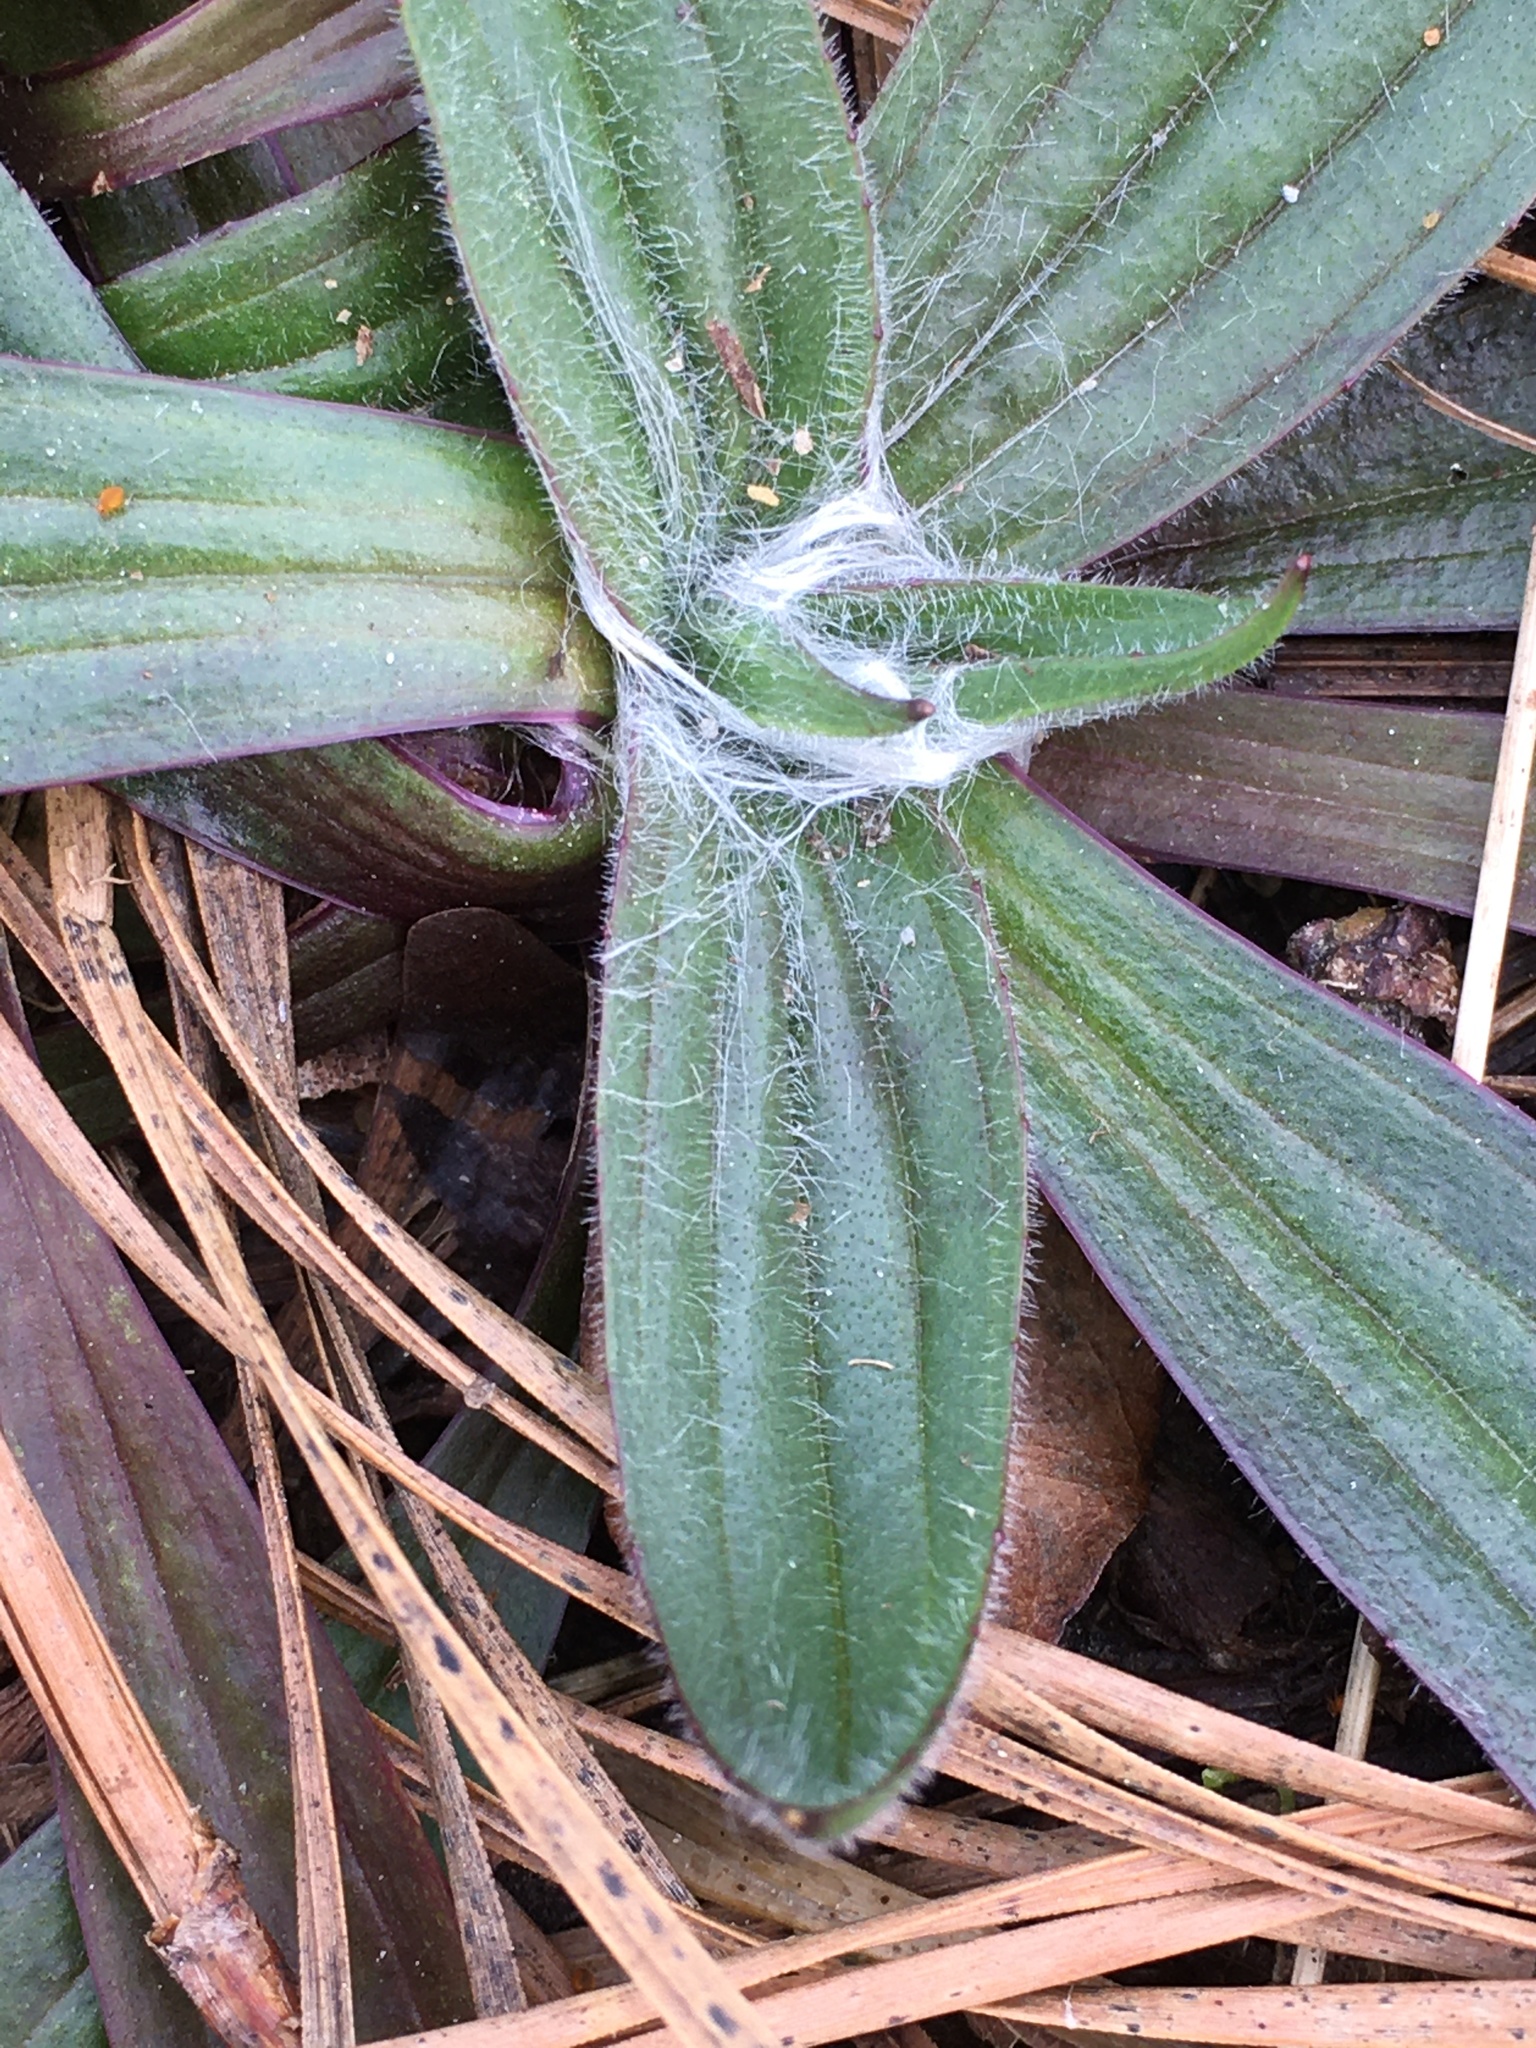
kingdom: Plantae
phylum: Tracheophyta
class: Magnoliopsida
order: Lamiales
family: Plantaginaceae
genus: Plantago
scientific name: Plantago lanceolata
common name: Ribwort plantain
